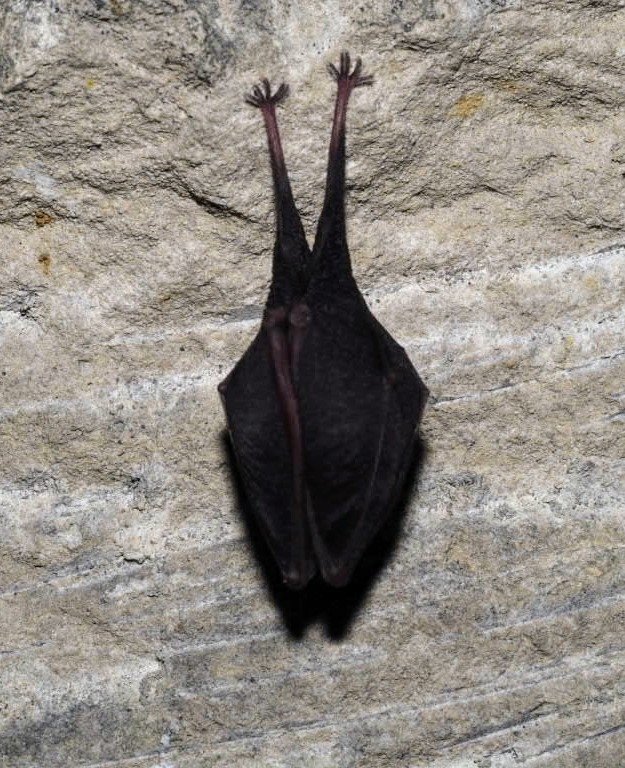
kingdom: Animalia
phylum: Chordata
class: Mammalia
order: Chiroptera
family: Rhinolophidae
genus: Rhinolophus
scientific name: Rhinolophus hipposideros
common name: Lesser horseshoe bat
